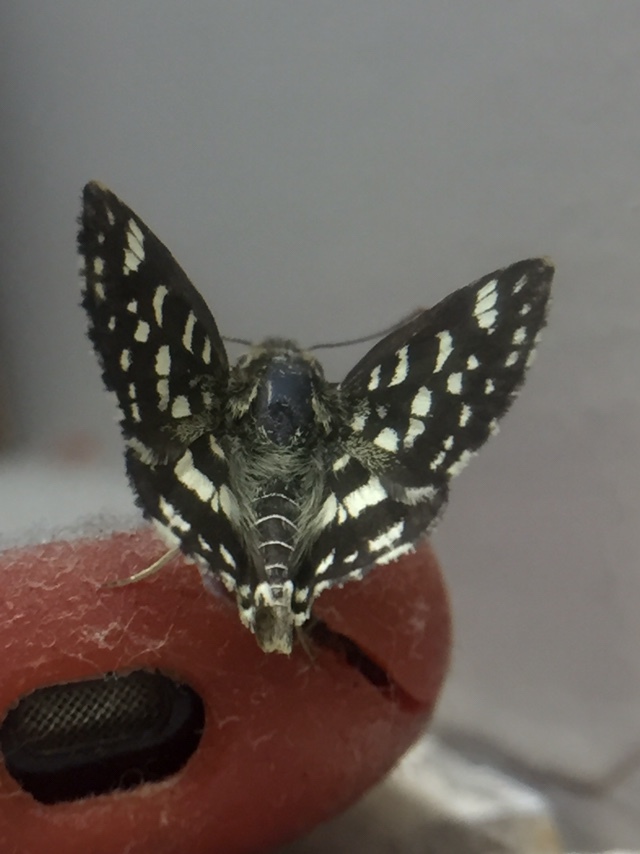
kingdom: Animalia
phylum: Arthropoda
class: Insecta
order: Lepidoptera
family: Hesperiidae
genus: Spialia
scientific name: Spialia galba
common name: Indian skipper
